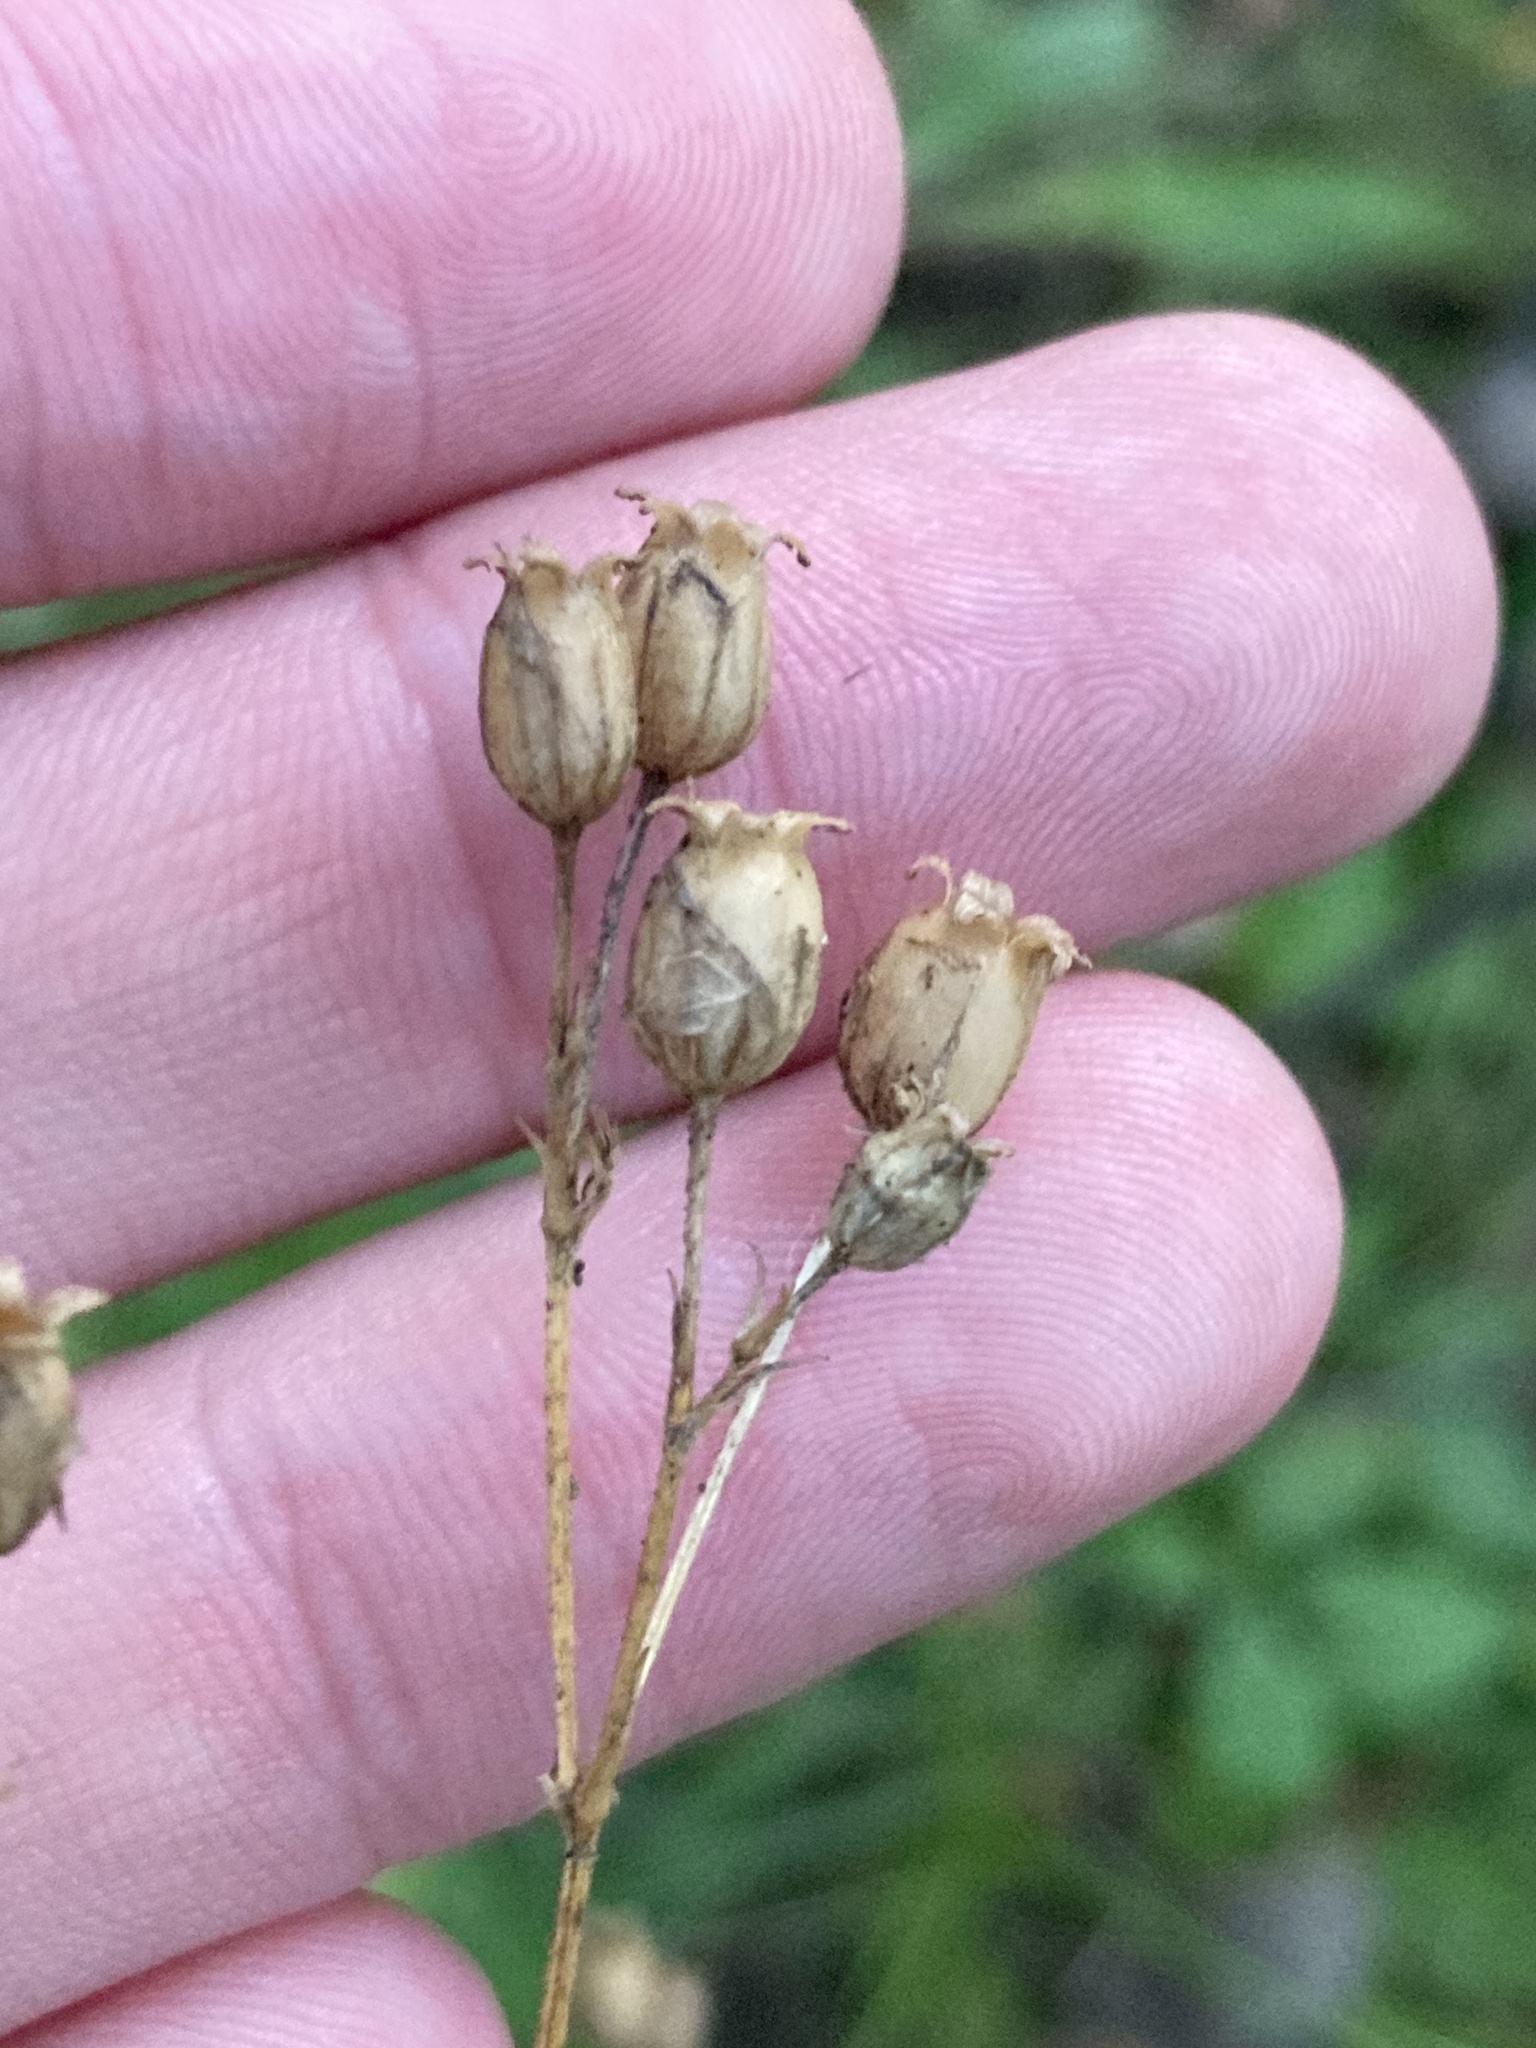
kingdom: Plantae
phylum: Tracheophyta
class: Magnoliopsida
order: Caryophyllales
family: Caryophyllaceae
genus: Silene
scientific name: Silene nutans
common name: Nottingham catchfly
